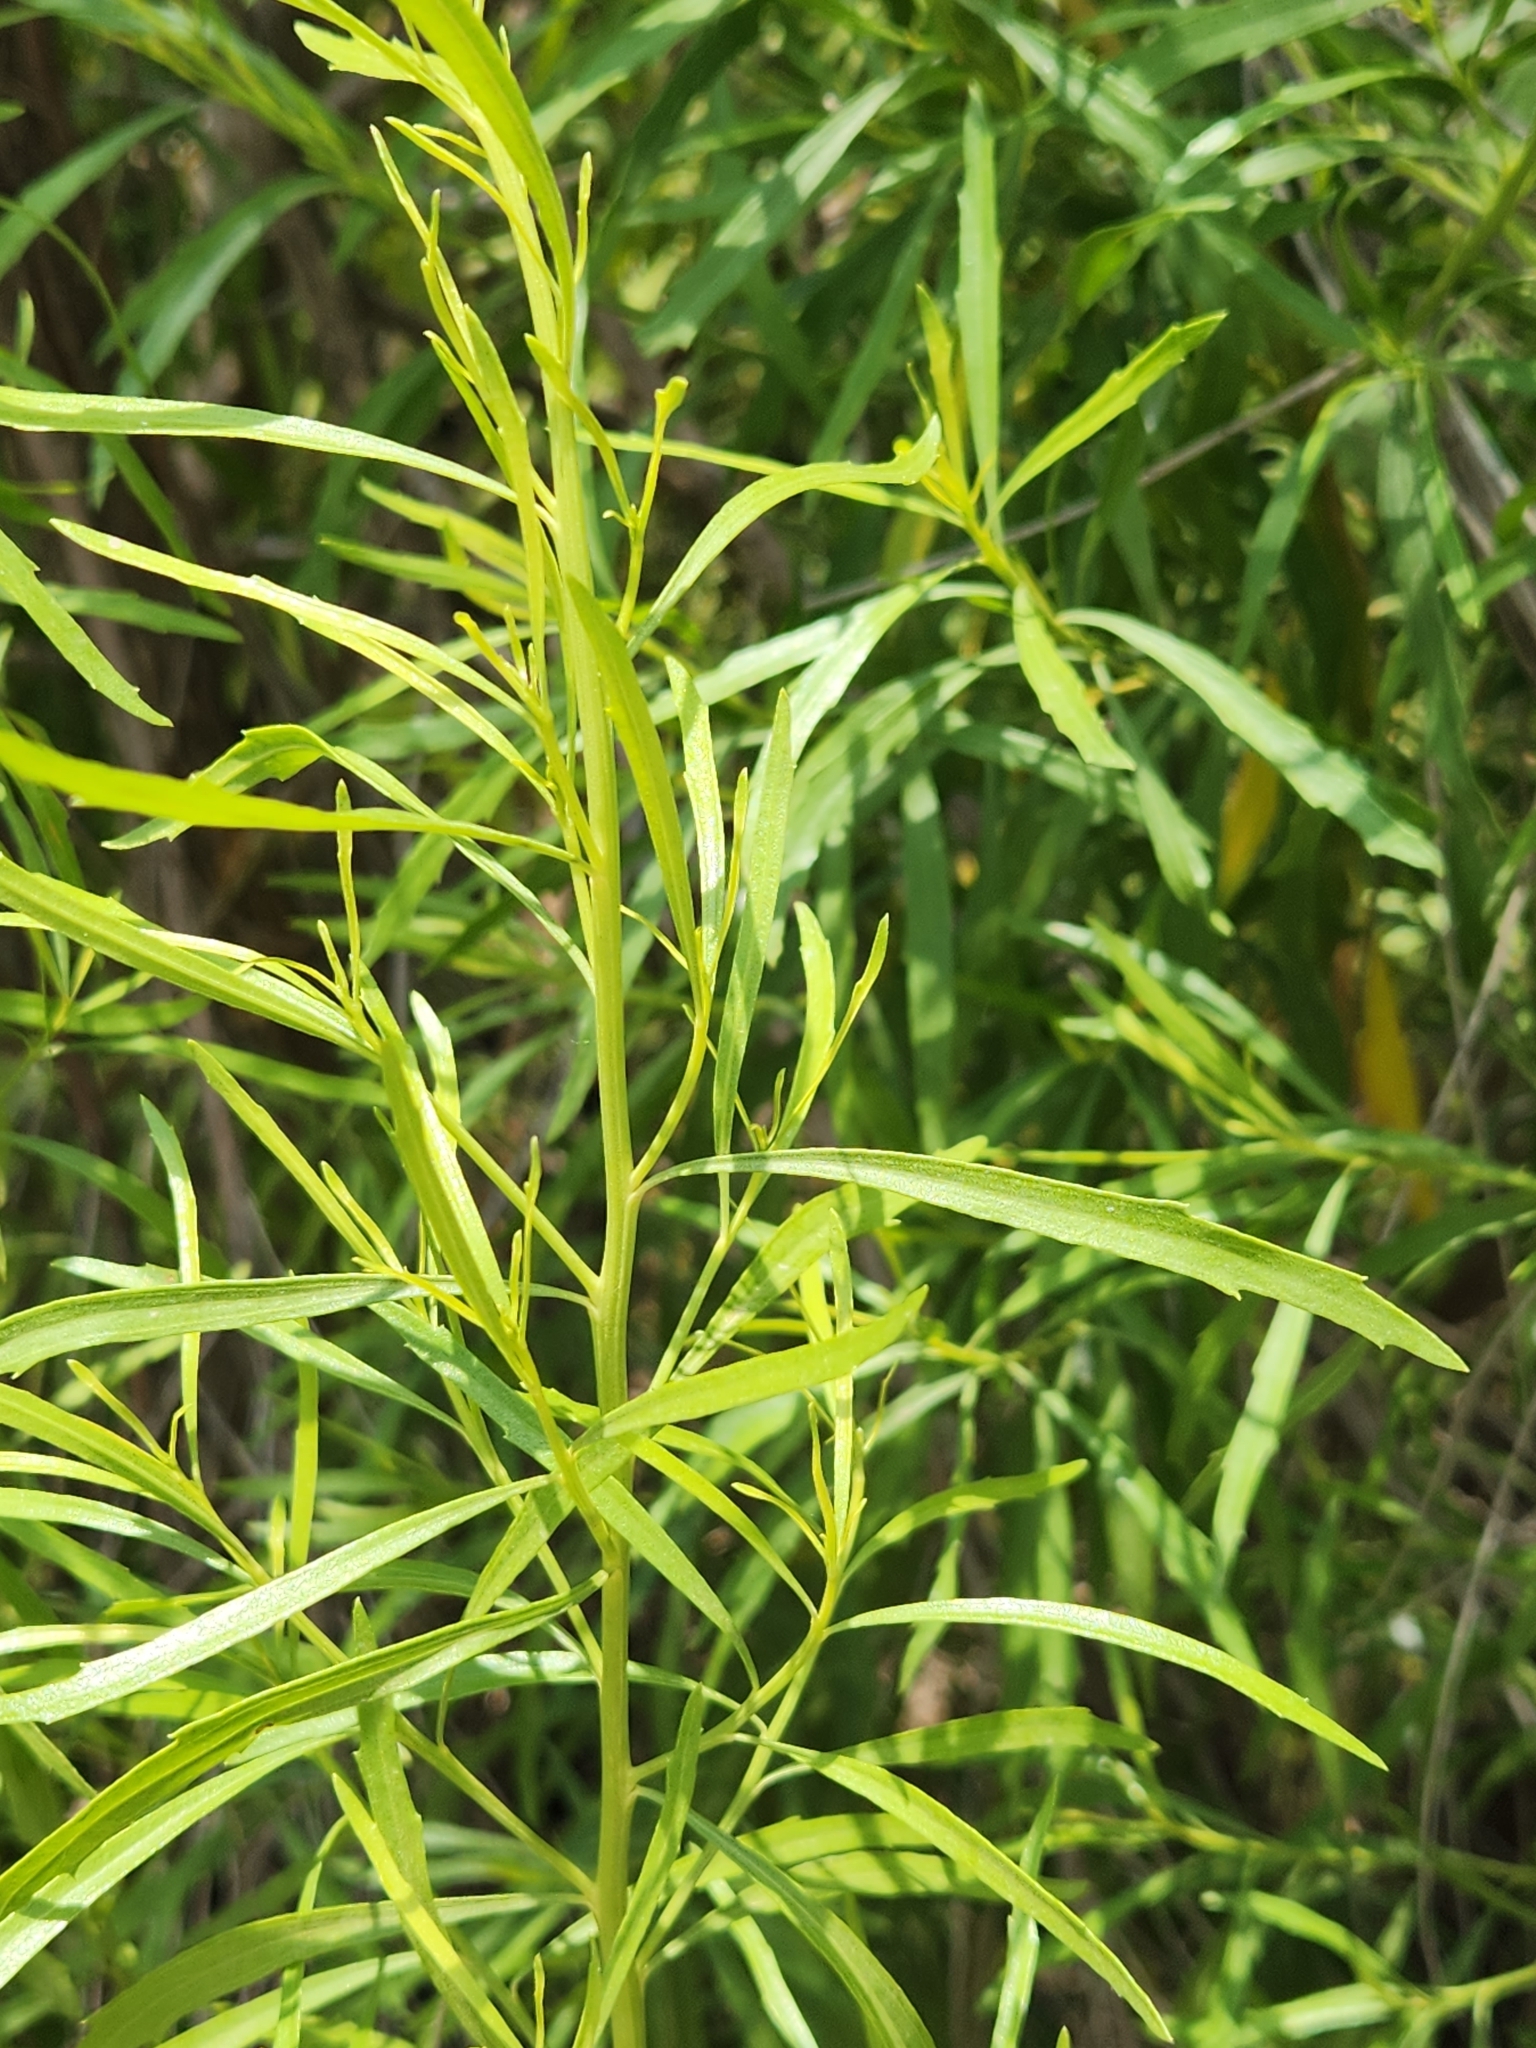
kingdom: Plantae
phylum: Tracheophyta
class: Magnoliopsida
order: Asterales
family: Asteraceae
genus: Baccharis
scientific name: Baccharis neglecta
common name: Roosevelt-weed
